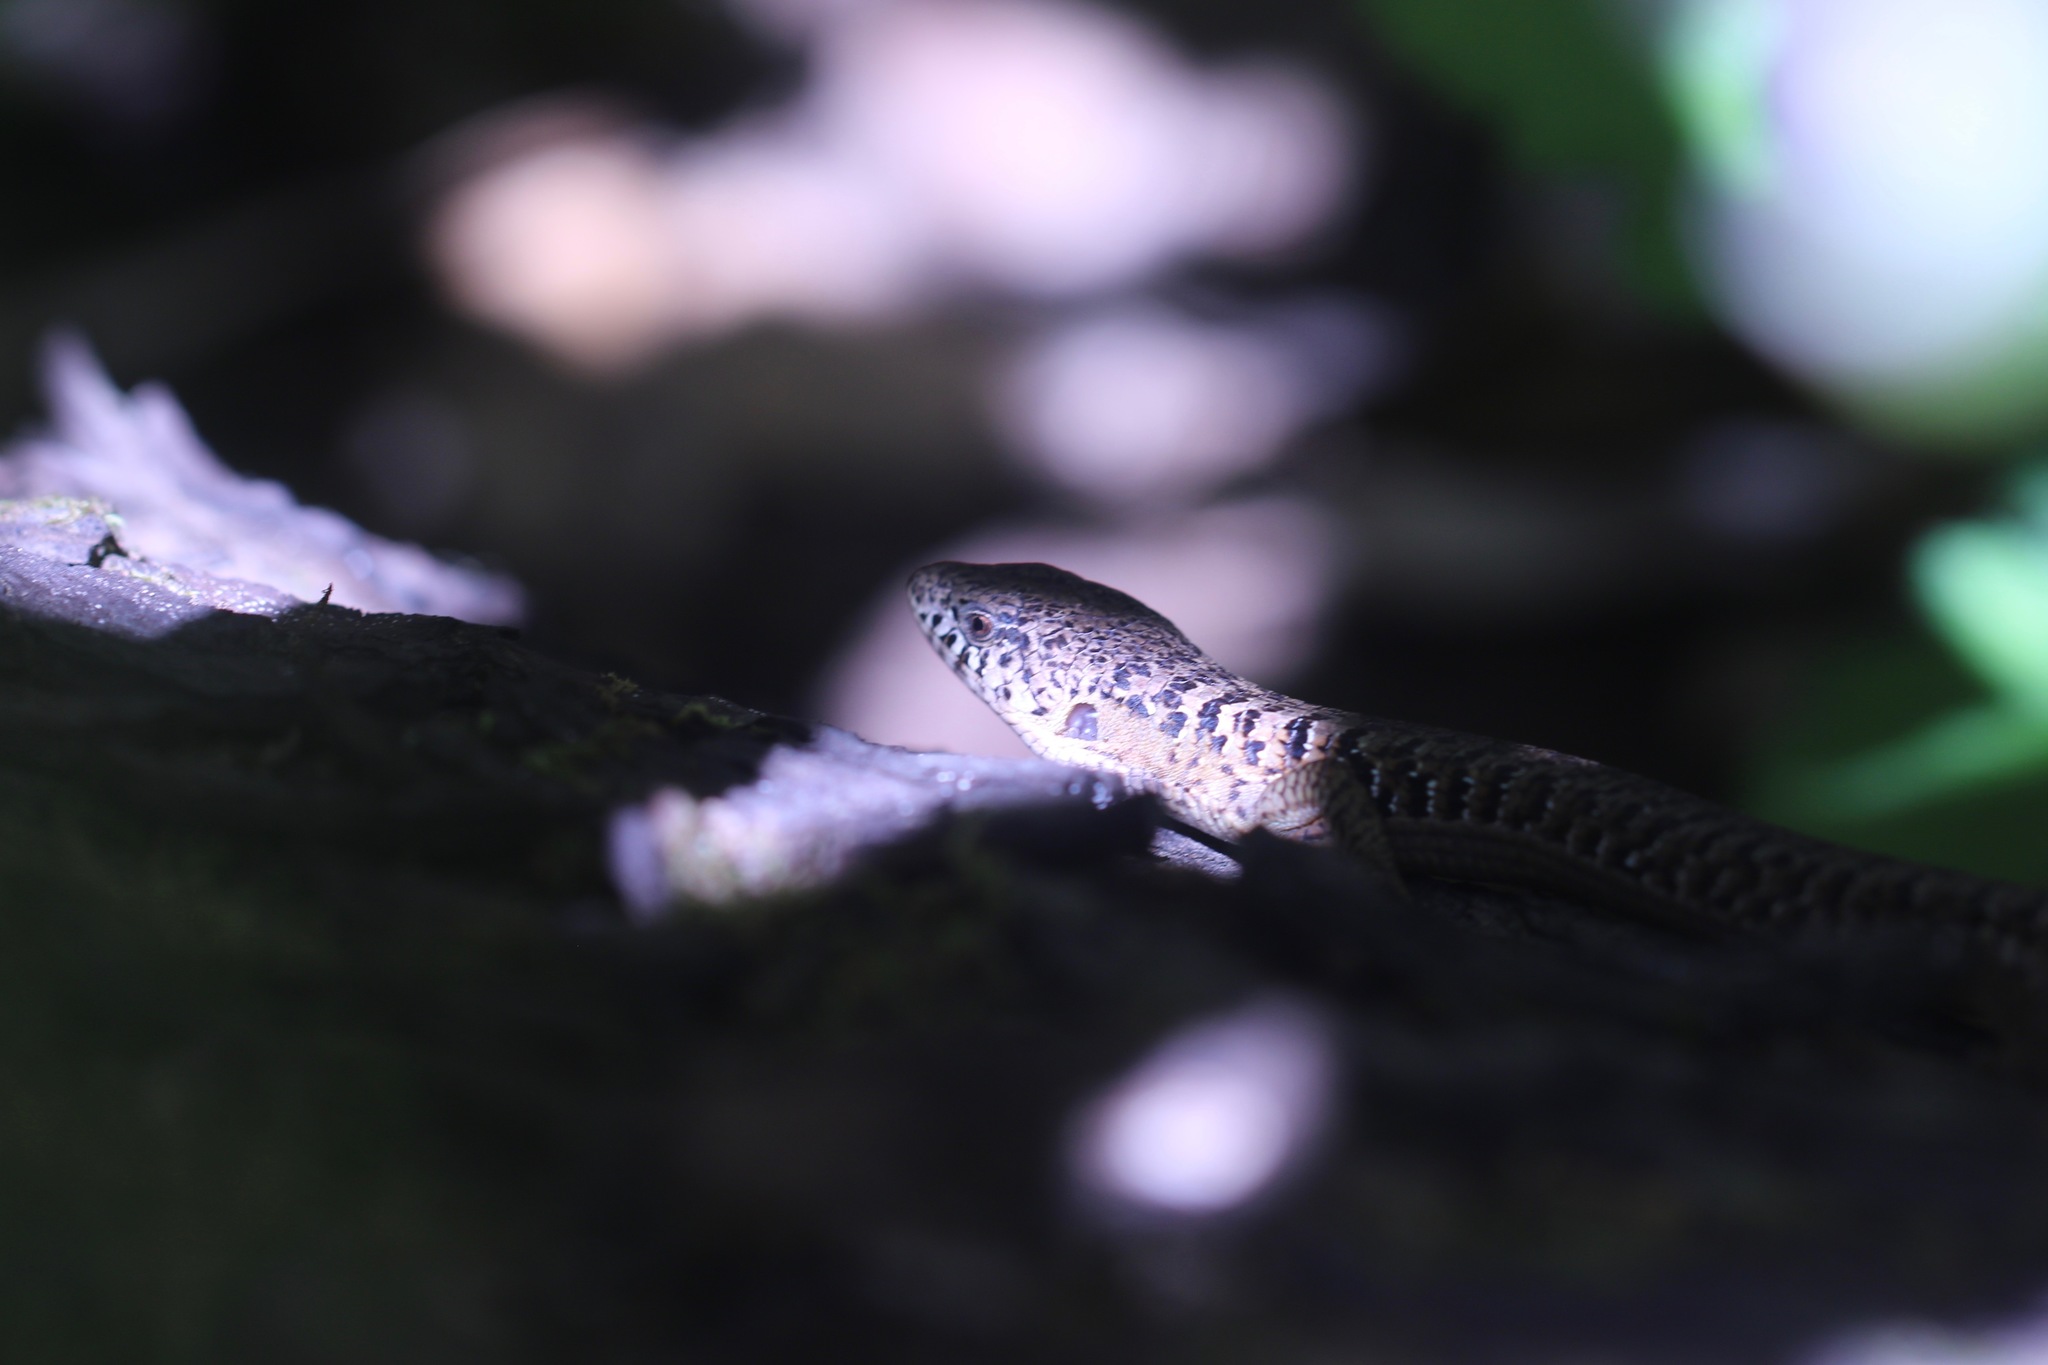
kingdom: Animalia
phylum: Chordata
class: Squamata
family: Anguidae
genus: Elgaria
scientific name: Elgaria coerulea
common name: Northern alligator lizard
